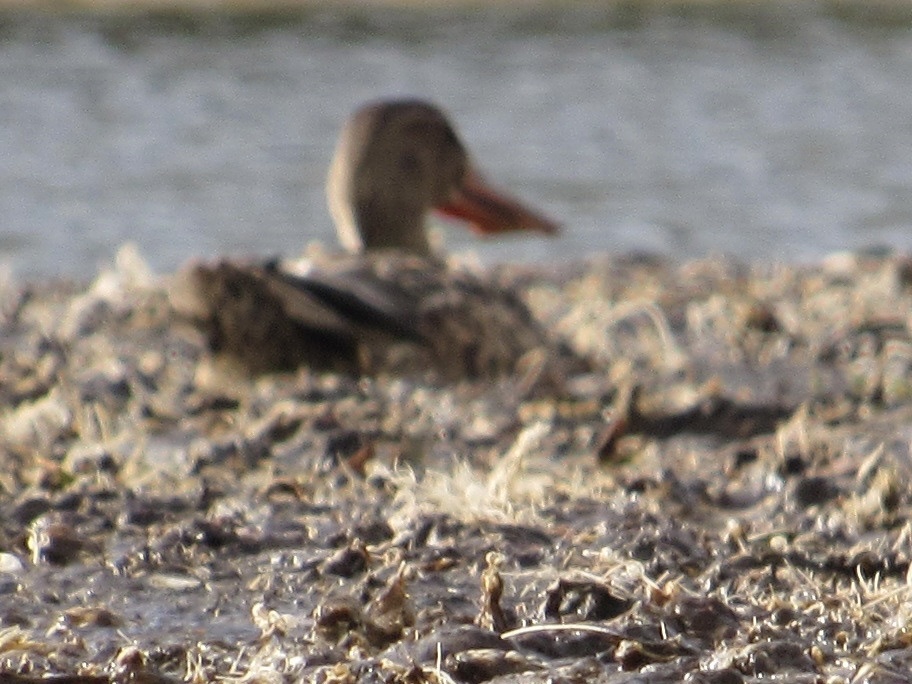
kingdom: Animalia
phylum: Chordata
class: Aves
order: Anseriformes
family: Anatidae
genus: Spatula
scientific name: Spatula clypeata
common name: Northern shoveler
